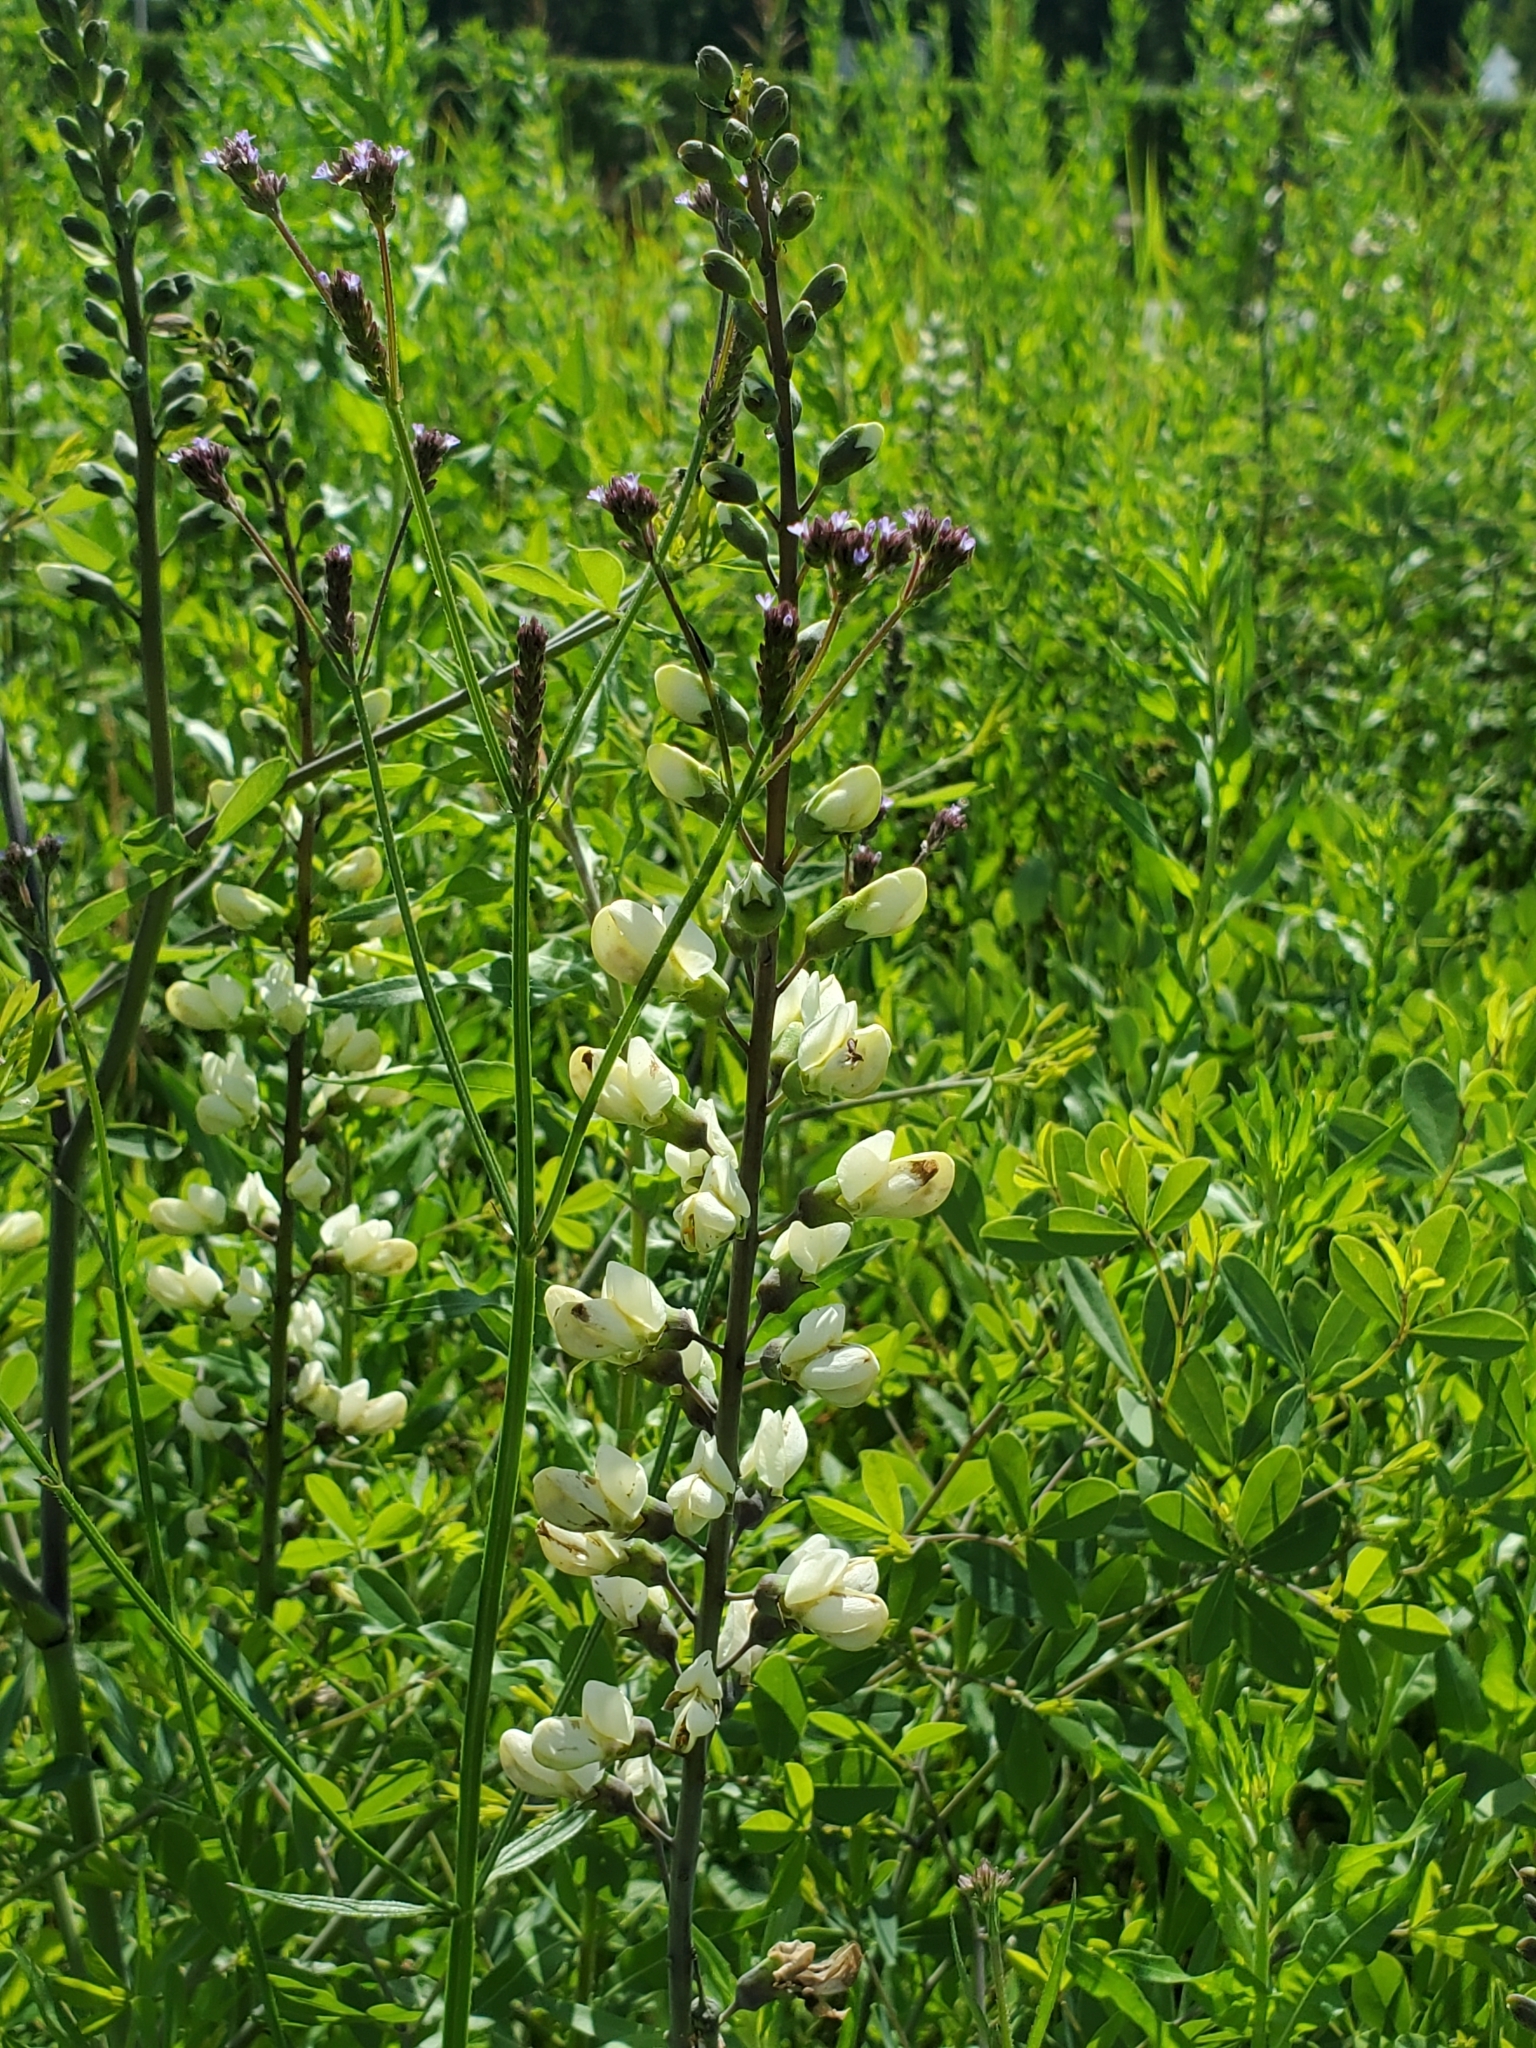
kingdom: Plantae
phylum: Tracheophyta
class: Magnoliopsida
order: Fabales
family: Fabaceae
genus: Baptisia
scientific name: Baptisia alba
